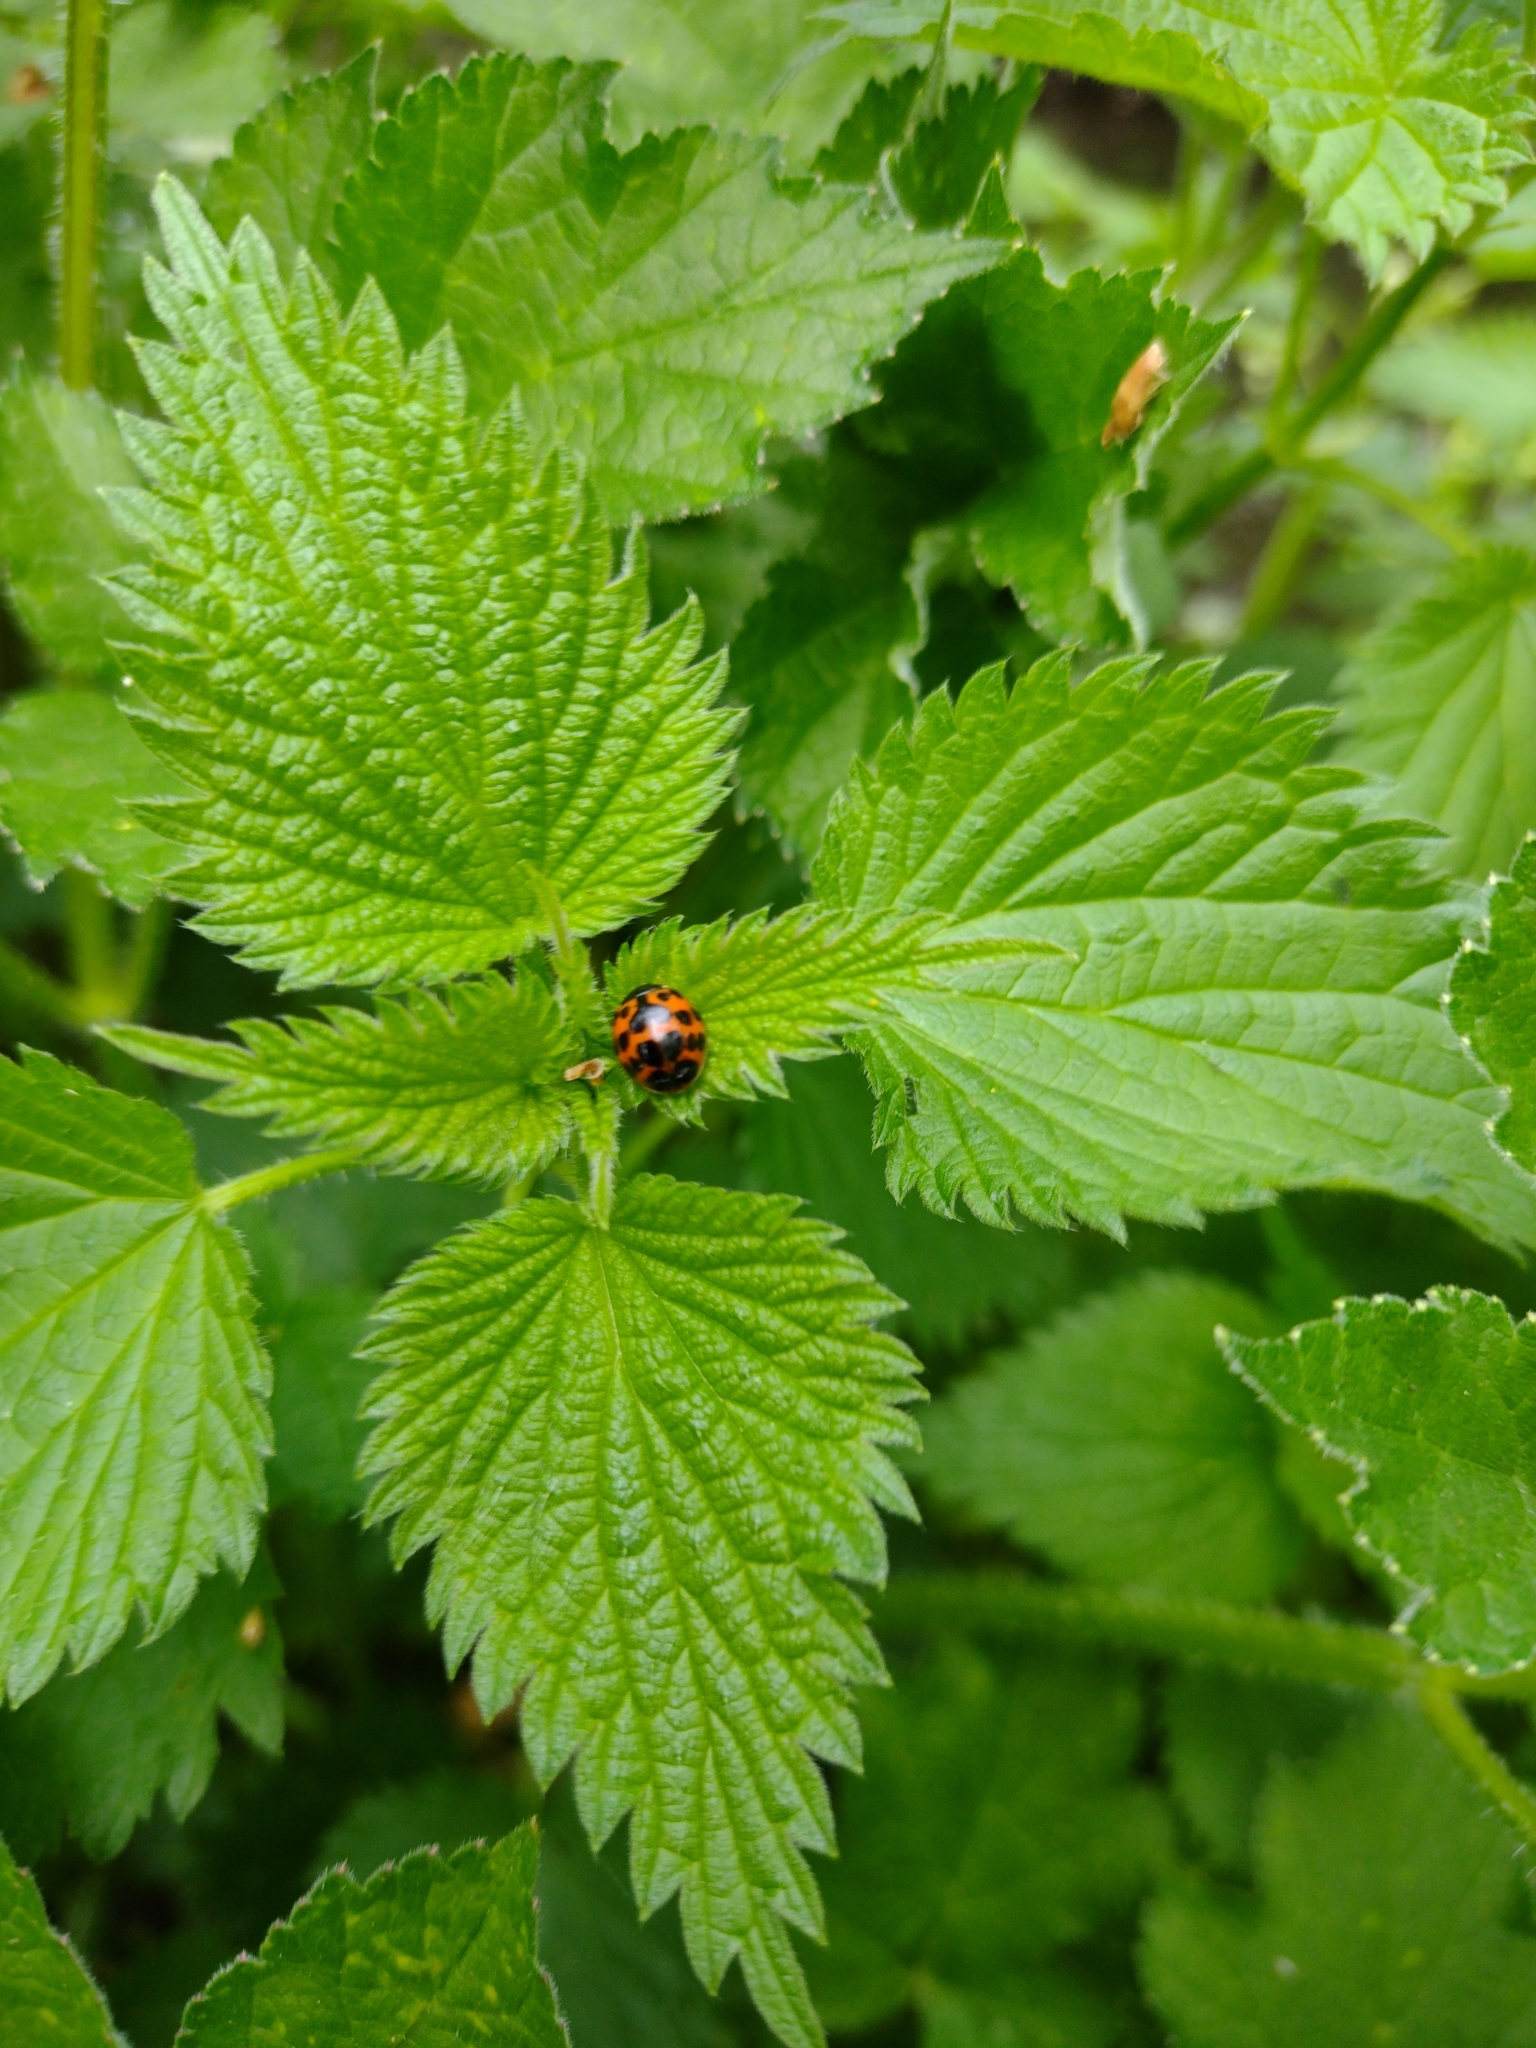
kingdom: Animalia
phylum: Arthropoda
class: Insecta
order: Coleoptera
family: Coccinellidae
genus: Harmonia
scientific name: Harmonia axyridis
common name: Harlequin ladybird
